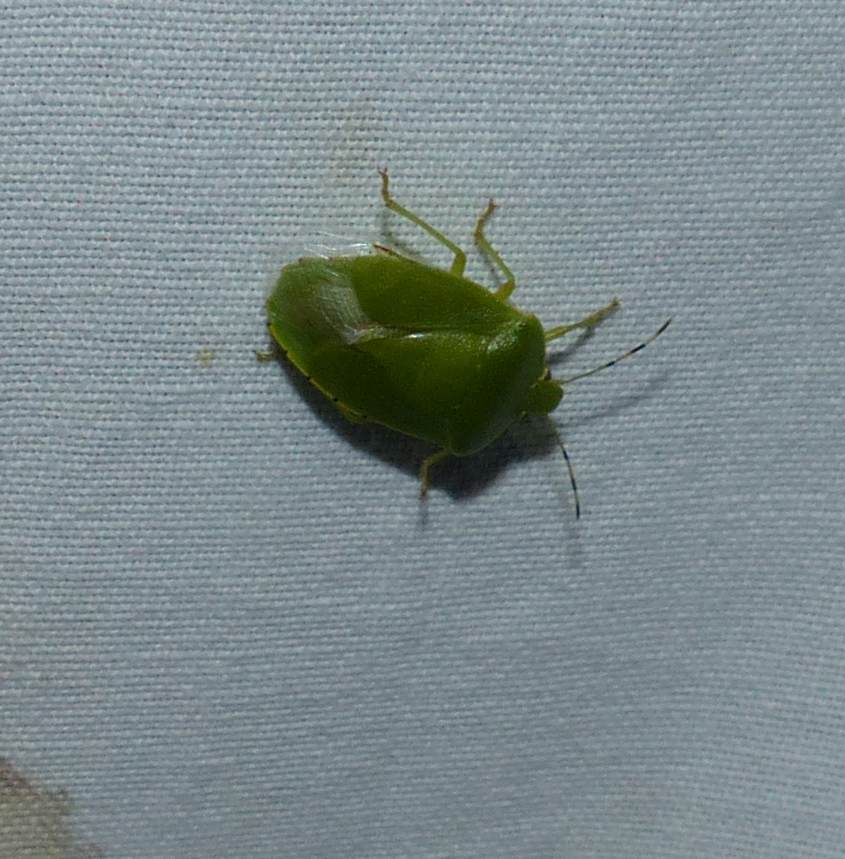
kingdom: Animalia
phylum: Arthropoda
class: Insecta
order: Hemiptera
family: Pentatomidae
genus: Chinavia
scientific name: Chinavia hilaris
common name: Green stink bug
